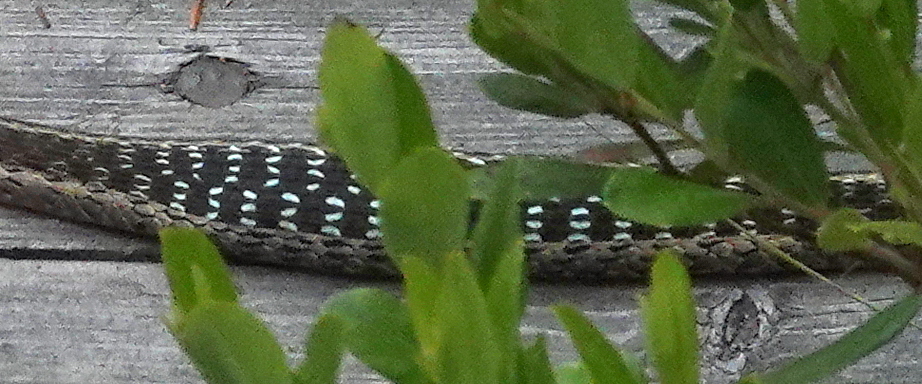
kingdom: Animalia
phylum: Chordata
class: Squamata
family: Colubridae
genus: Thamnophis
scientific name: Thamnophis sirtalis
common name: Common garter snake
